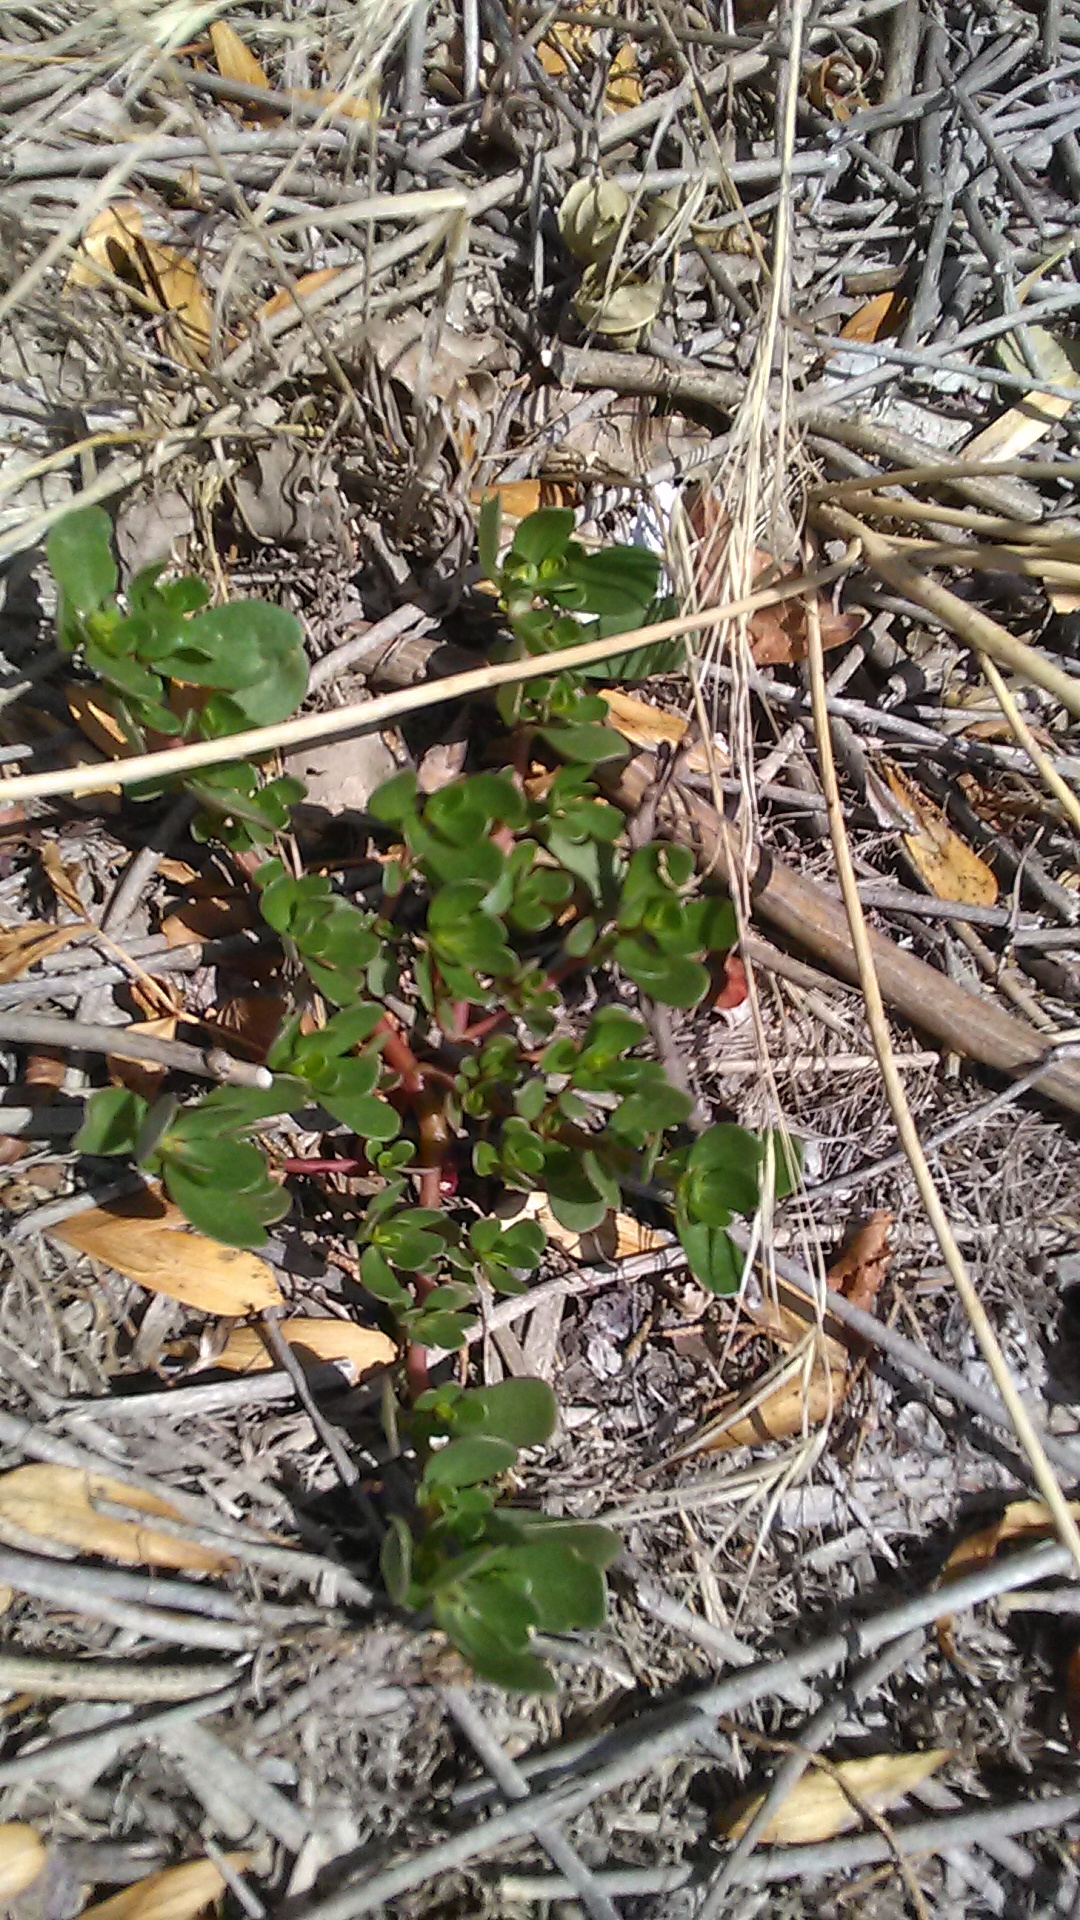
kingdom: Plantae
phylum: Tracheophyta
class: Magnoliopsida
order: Caryophyllales
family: Portulacaceae
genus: Portulaca
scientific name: Portulaca oleracea
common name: Common purslane
